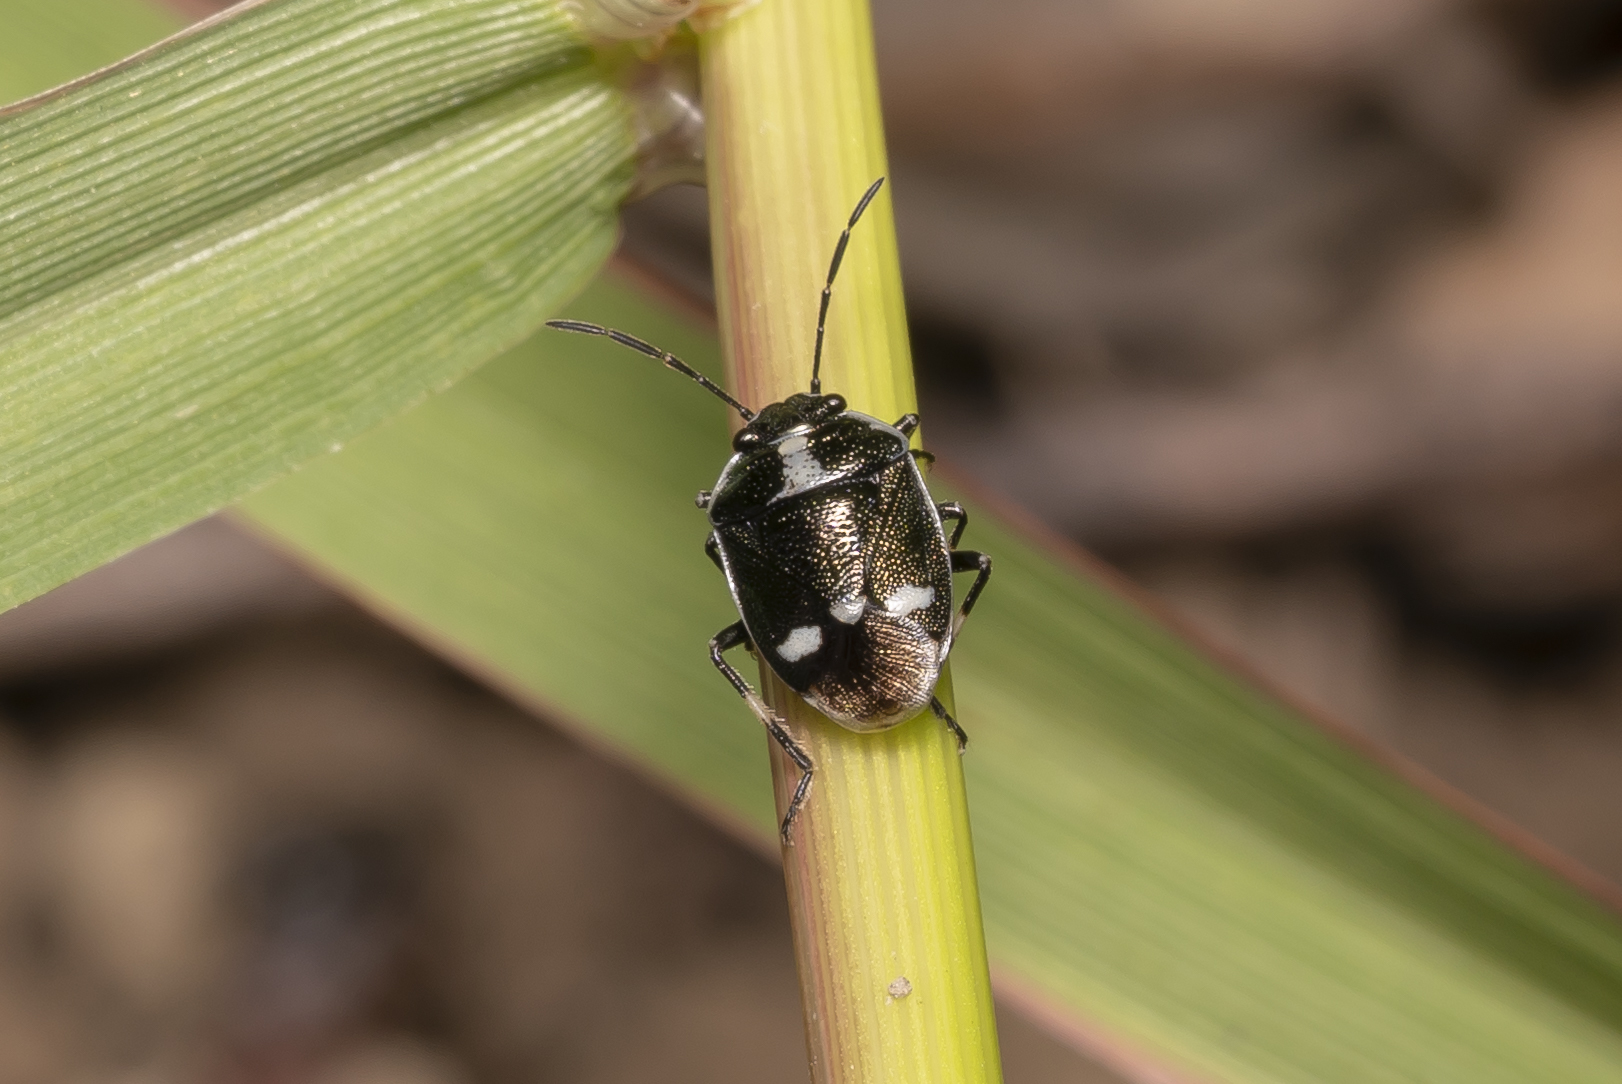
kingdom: Animalia
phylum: Arthropoda
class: Insecta
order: Hemiptera
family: Pentatomidae
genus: Eurydema
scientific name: Eurydema oleracea
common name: Cabbage bug
